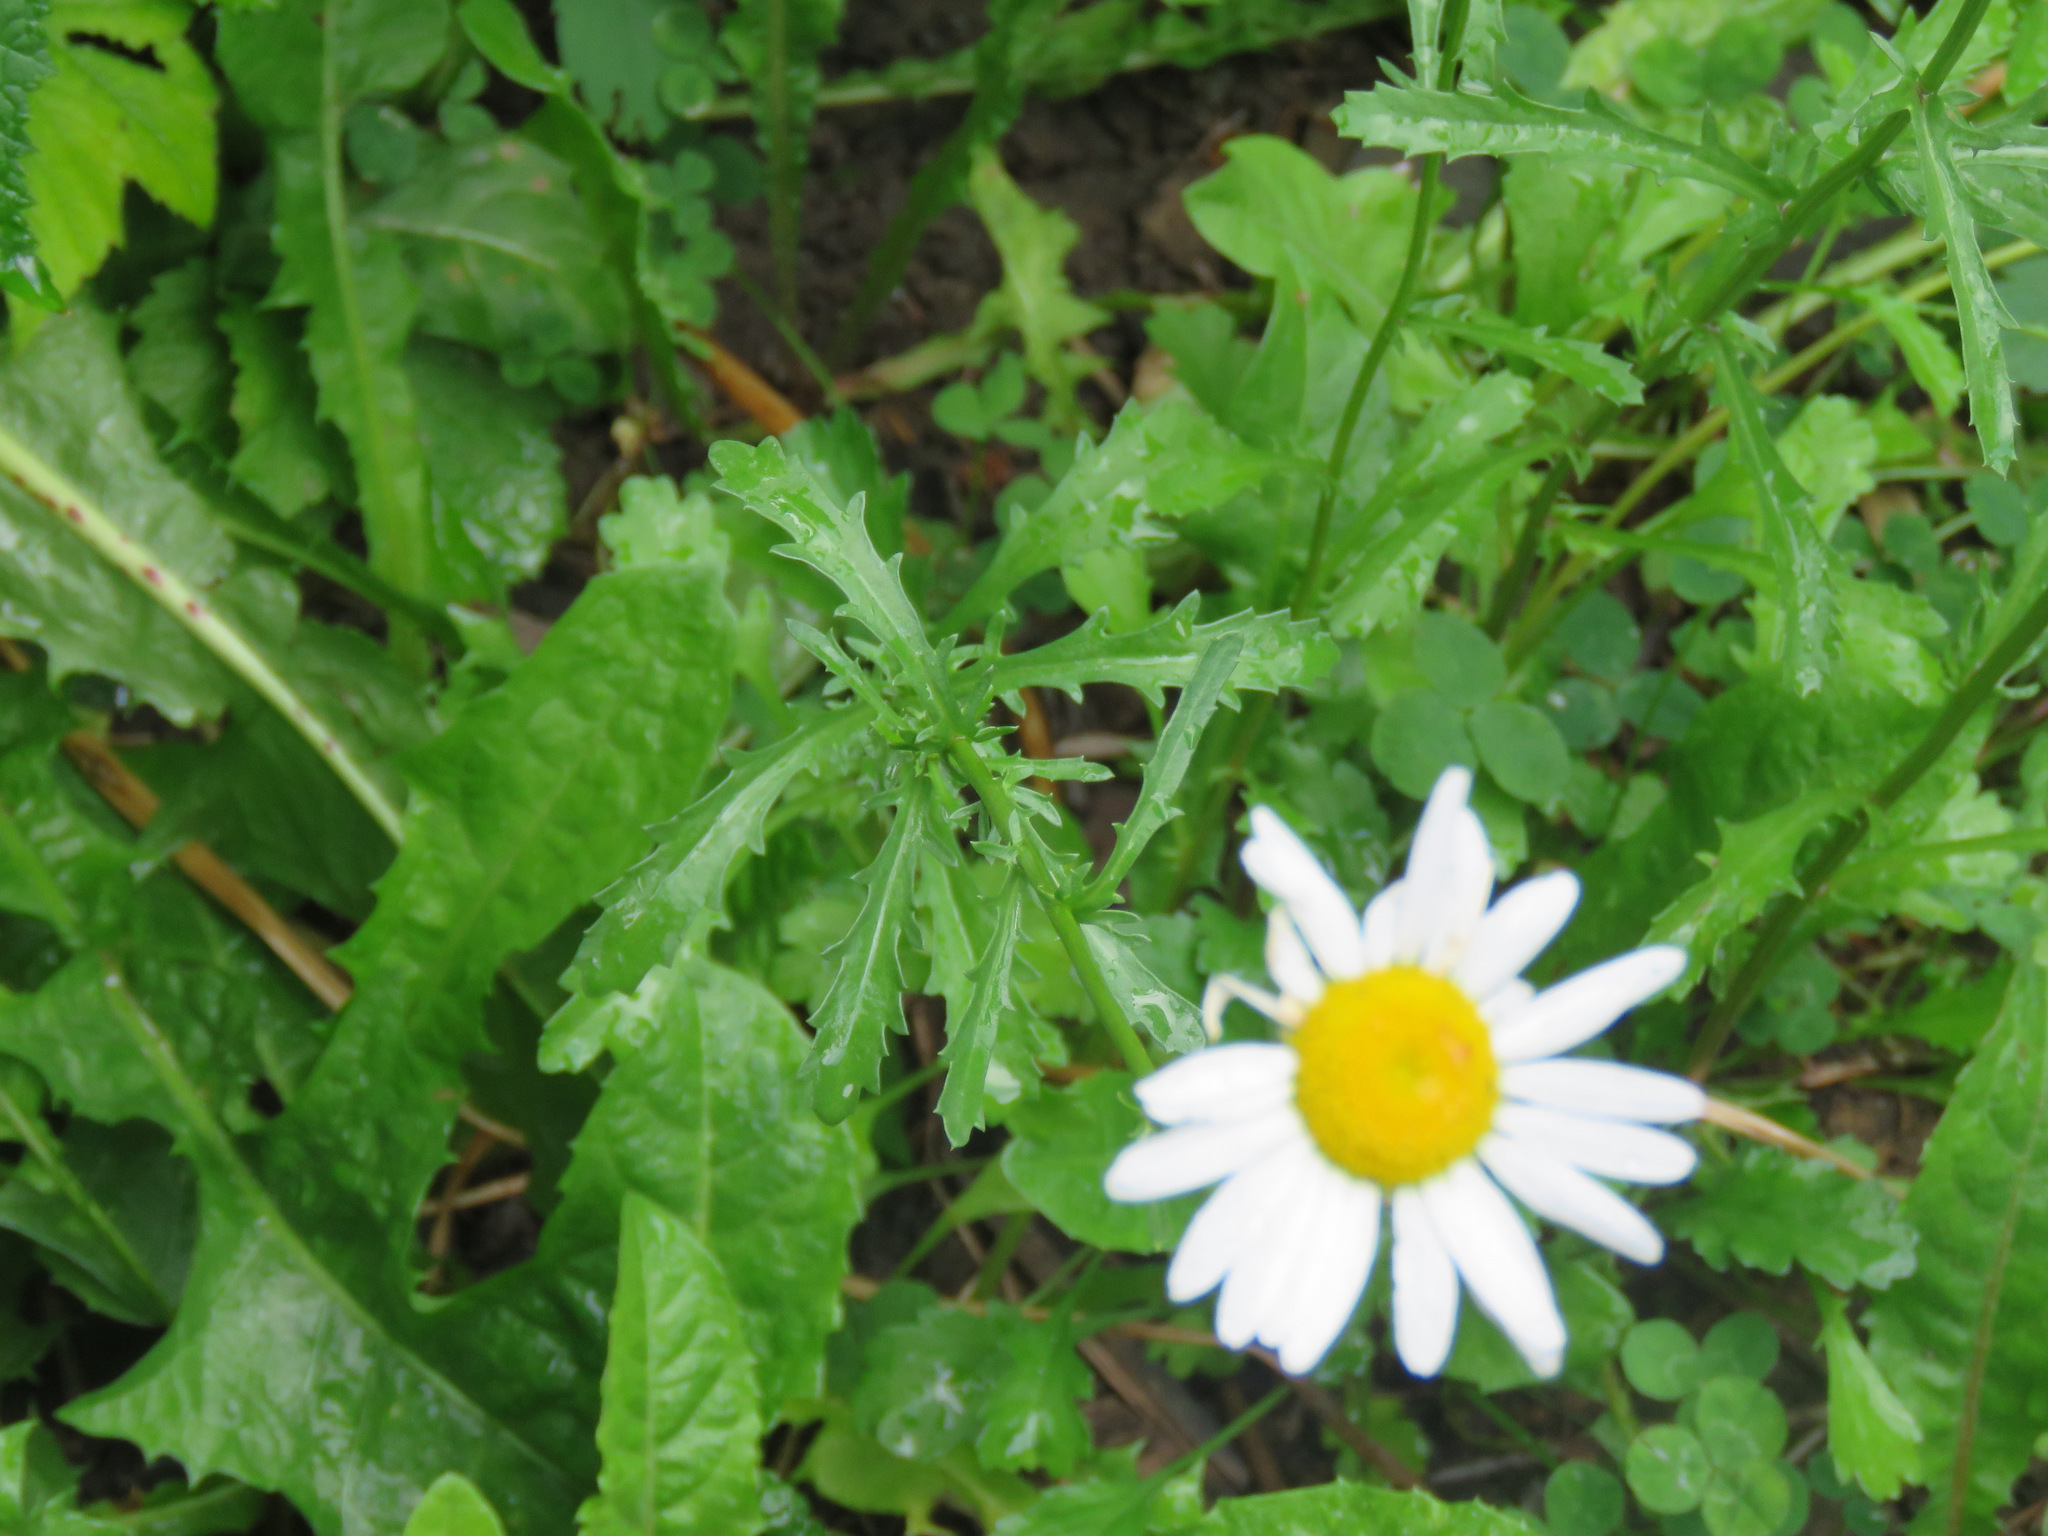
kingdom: Plantae
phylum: Tracheophyta
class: Magnoliopsida
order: Asterales
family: Asteraceae
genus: Leucanthemum
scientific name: Leucanthemum vulgare
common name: Oxeye daisy
